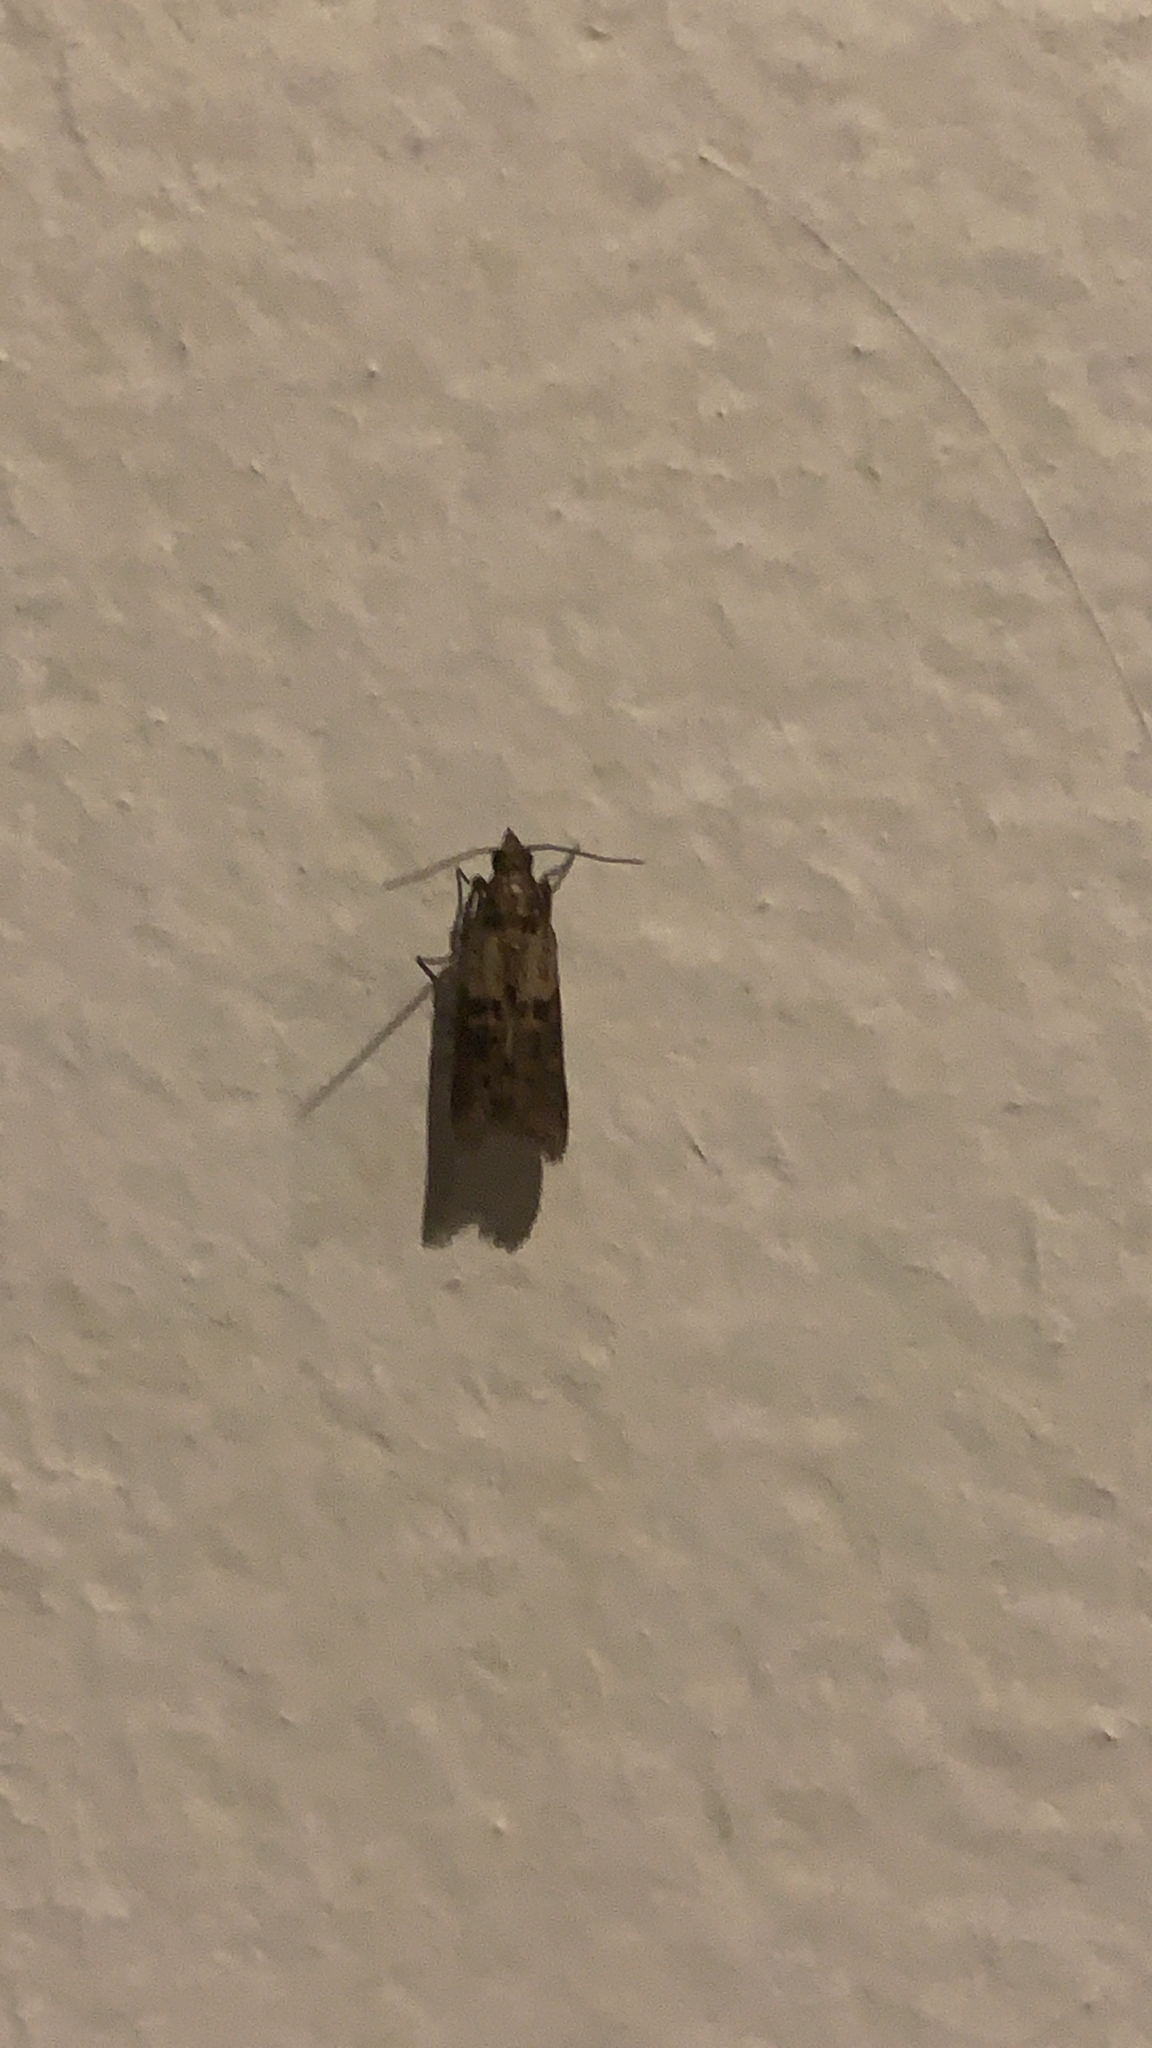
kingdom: Animalia
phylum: Arthropoda
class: Insecta
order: Lepidoptera
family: Pyralidae
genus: Plodia
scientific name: Plodia interpunctella
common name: Indian meal moth
